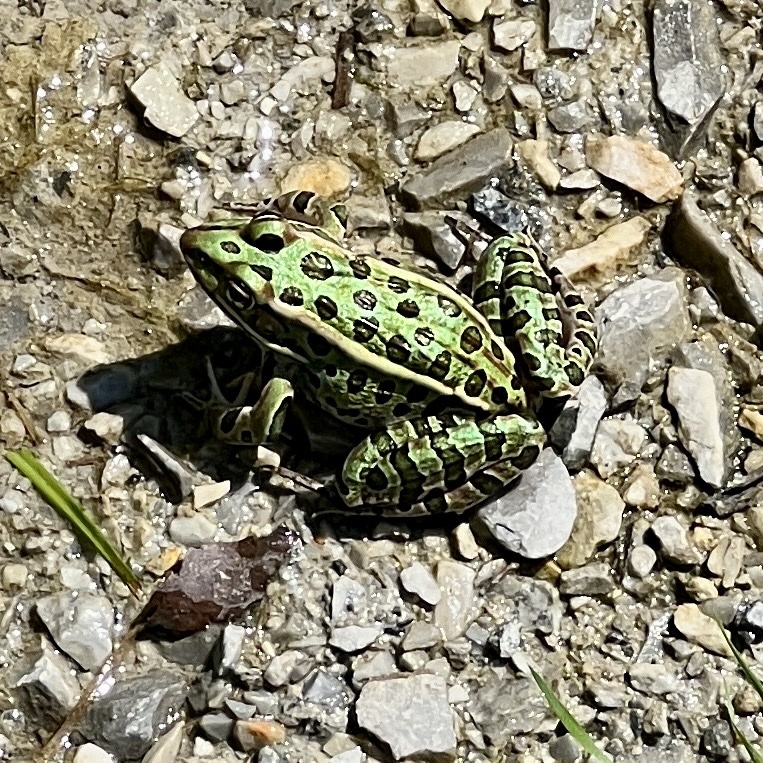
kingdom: Animalia
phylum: Chordata
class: Amphibia
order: Anura
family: Ranidae
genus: Lithobates
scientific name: Lithobates pipiens
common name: Northern leopard frog
